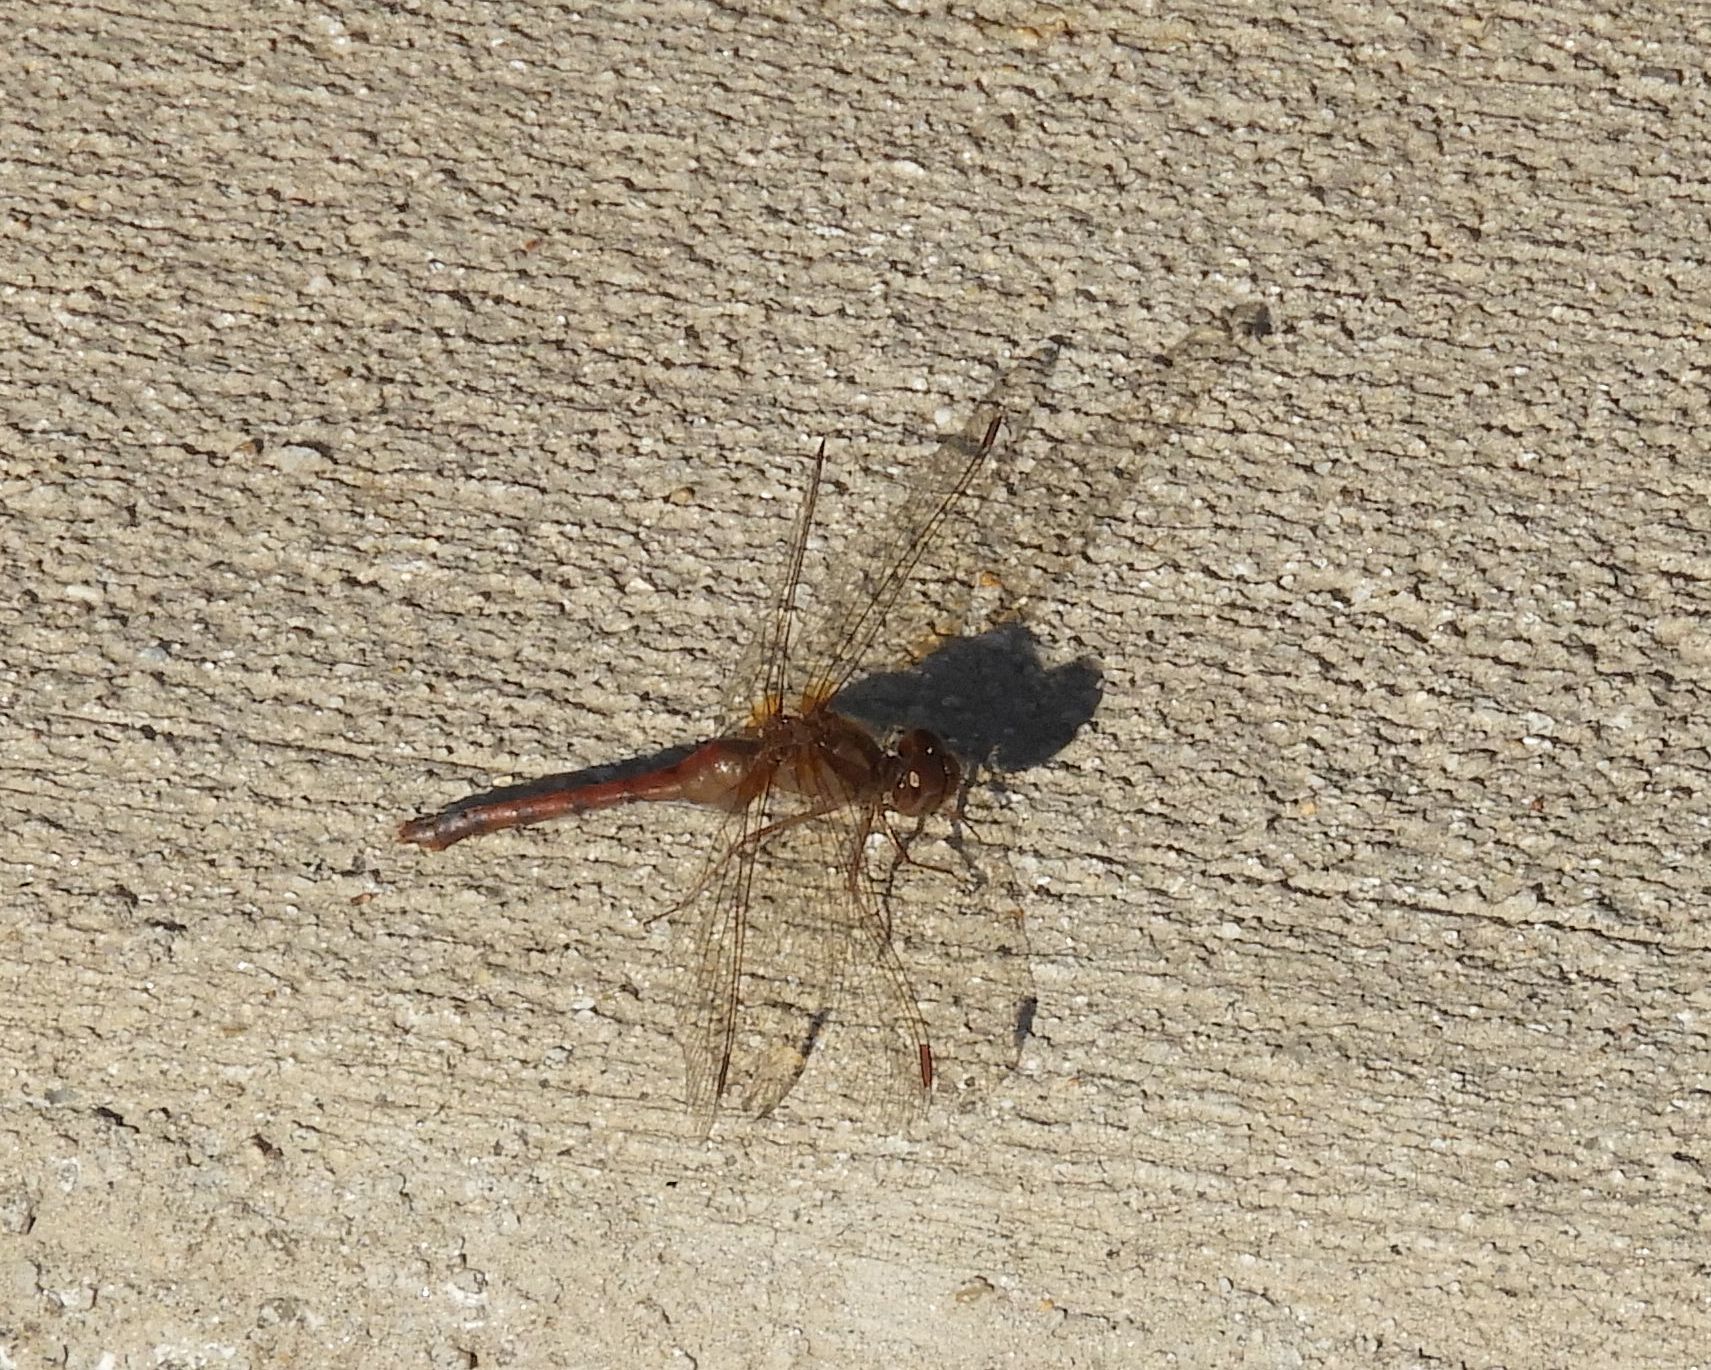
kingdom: Animalia
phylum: Arthropoda
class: Insecta
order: Odonata
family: Libellulidae
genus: Sympetrum
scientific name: Sympetrum vicinum
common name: Autumn meadowhawk
